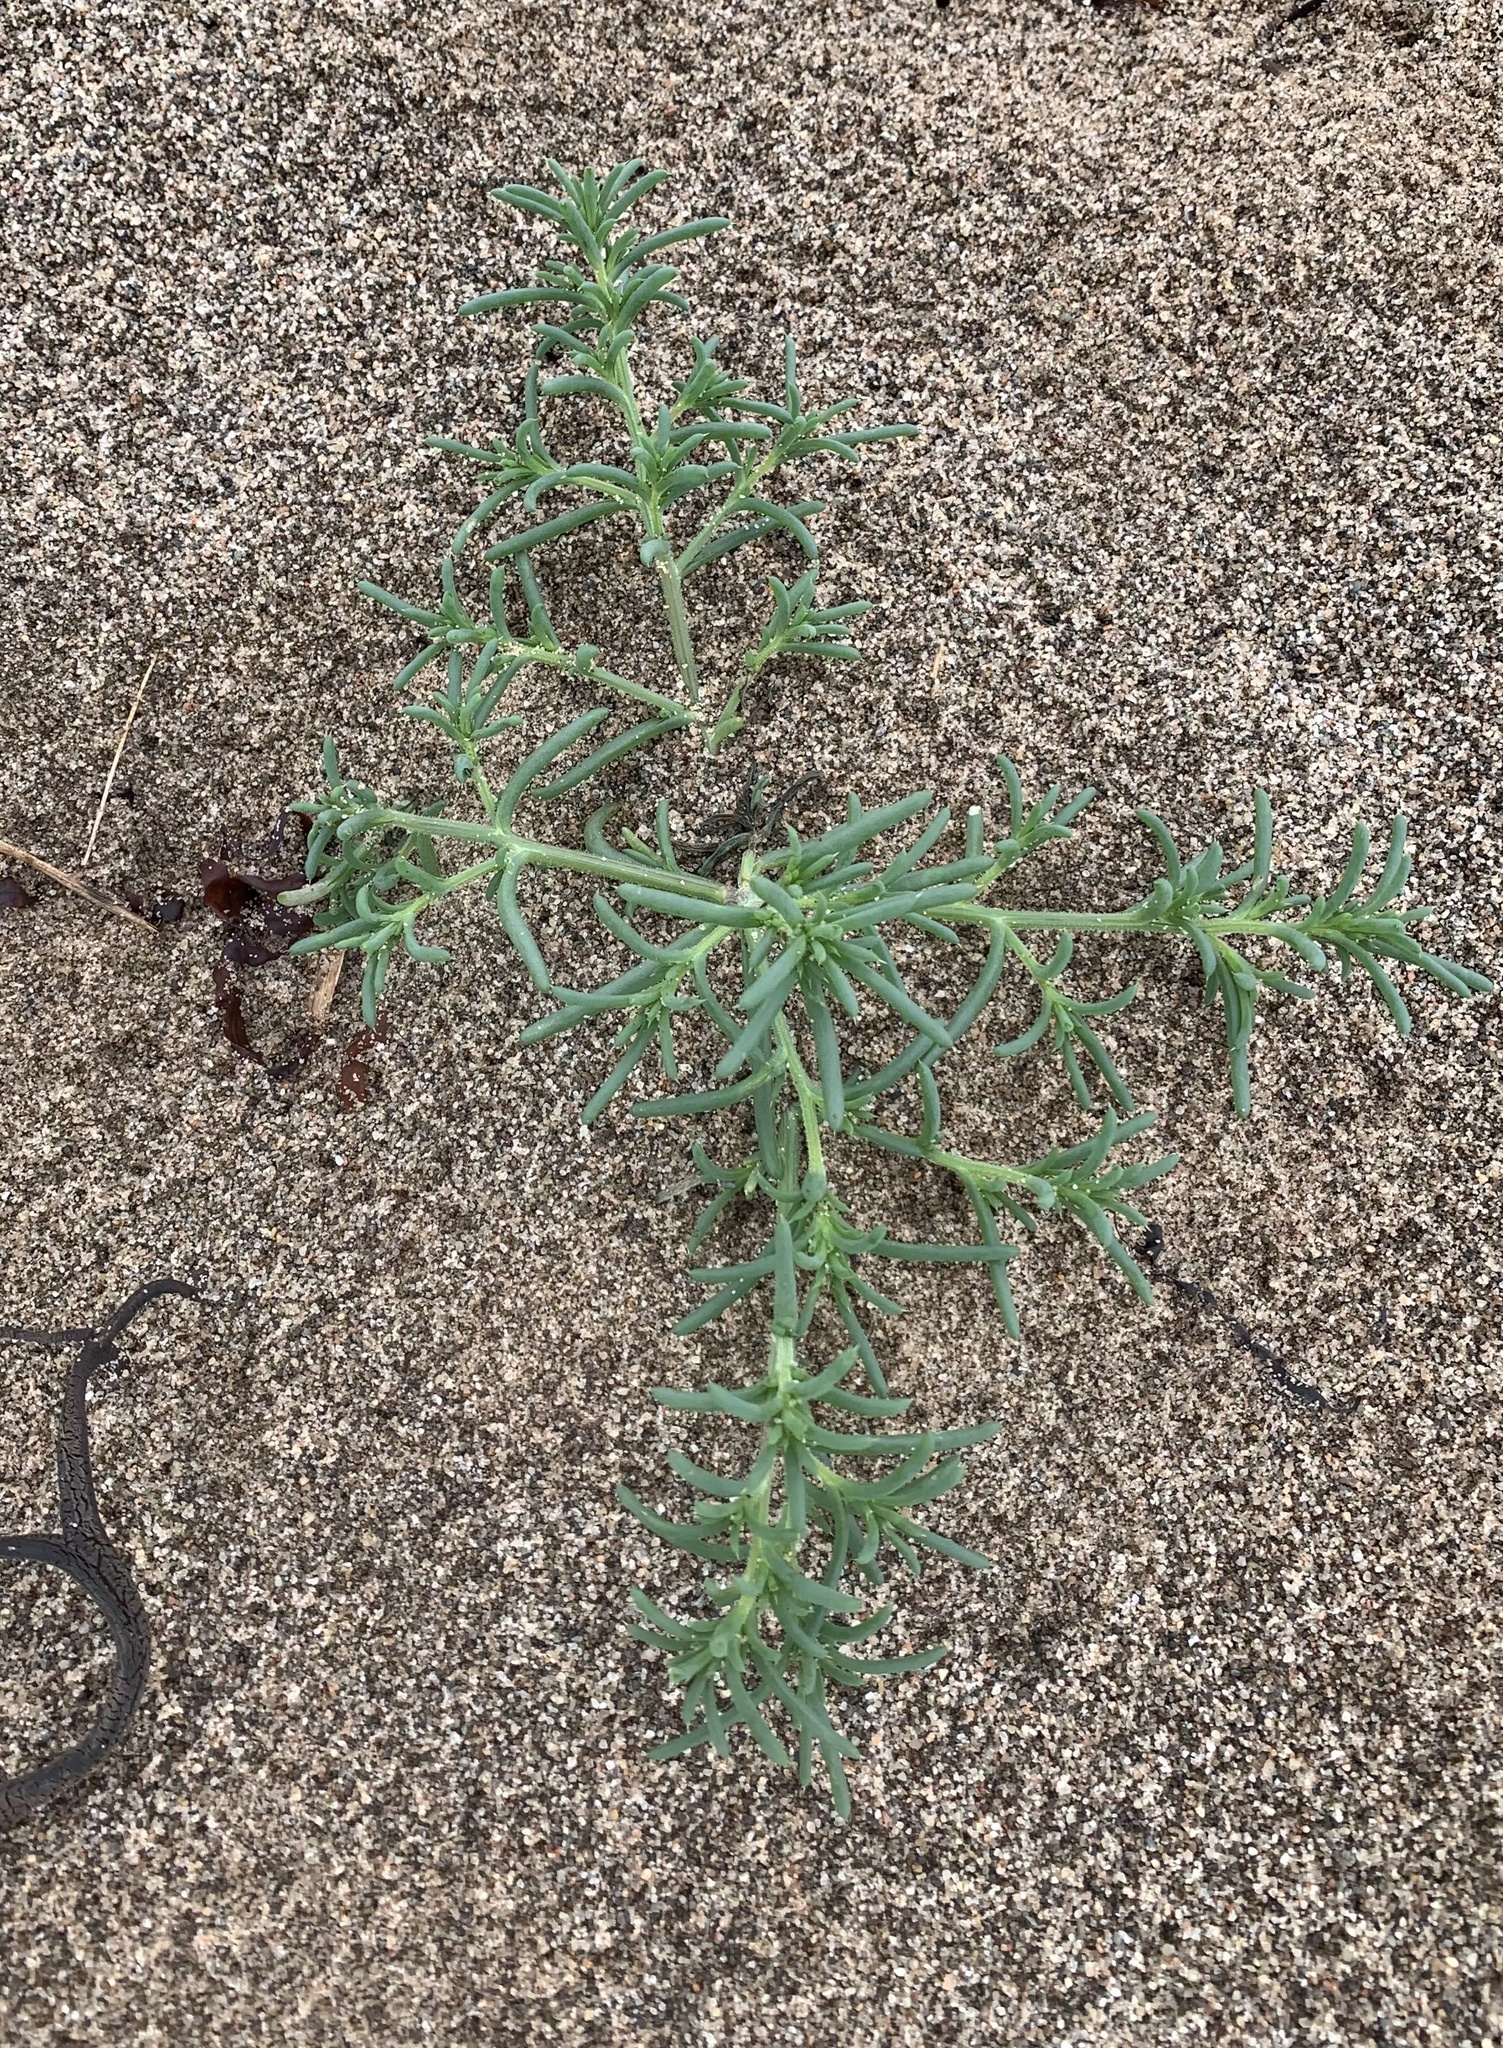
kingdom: Plantae
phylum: Tracheophyta
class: Magnoliopsida
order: Caryophyllales
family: Amaranthaceae
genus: Salsola
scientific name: Salsola kali
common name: Saltwort
